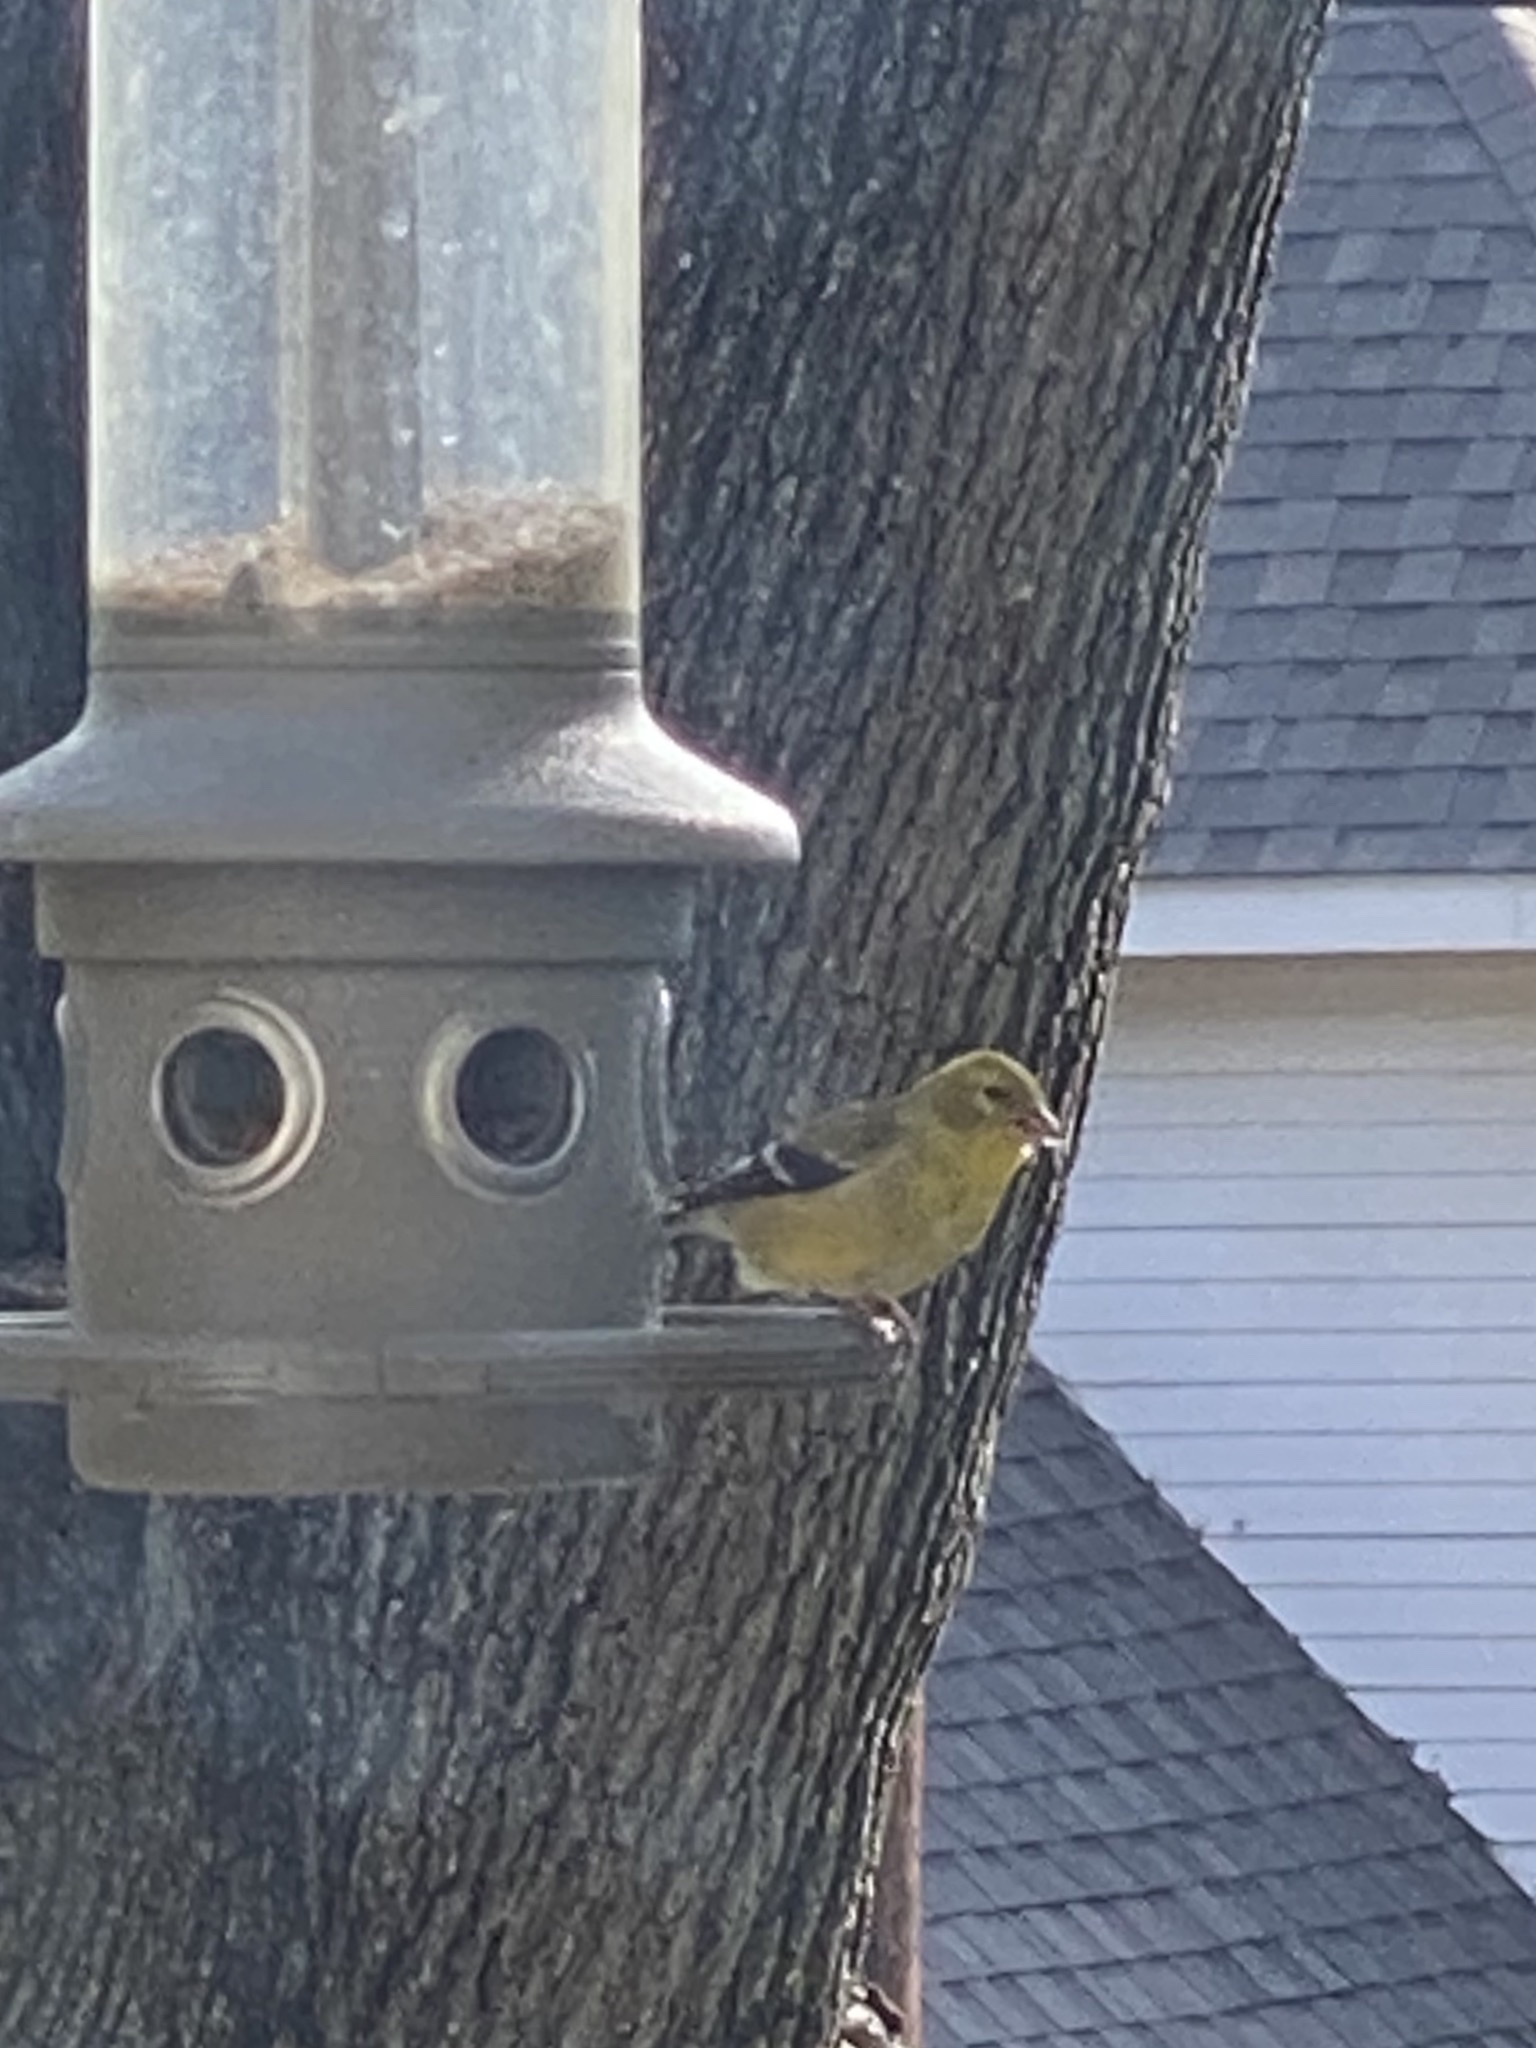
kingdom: Animalia
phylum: Chordata
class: Aves
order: Passeriformes
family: Fringillidae
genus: Spinus
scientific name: Spinus tristis
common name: American goldfinch
